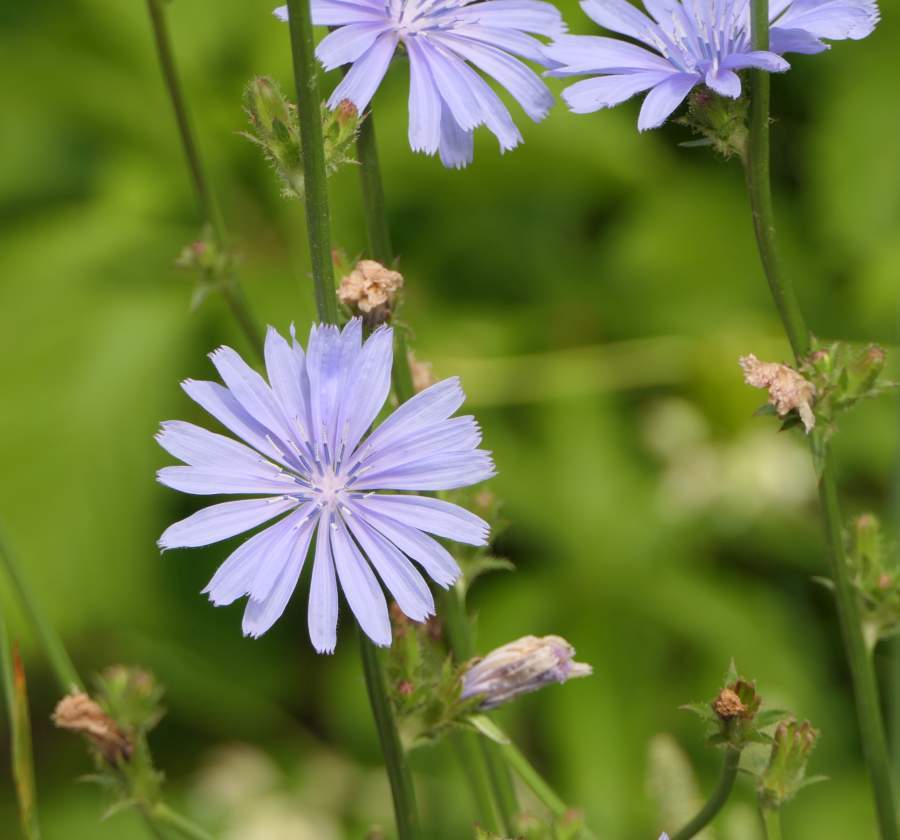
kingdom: Plantae
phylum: Tracheophyta
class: Magnoliopsida
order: Asterales
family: Asteraceae
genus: Cichorium
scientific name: Cichorium intybus
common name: Chicory
